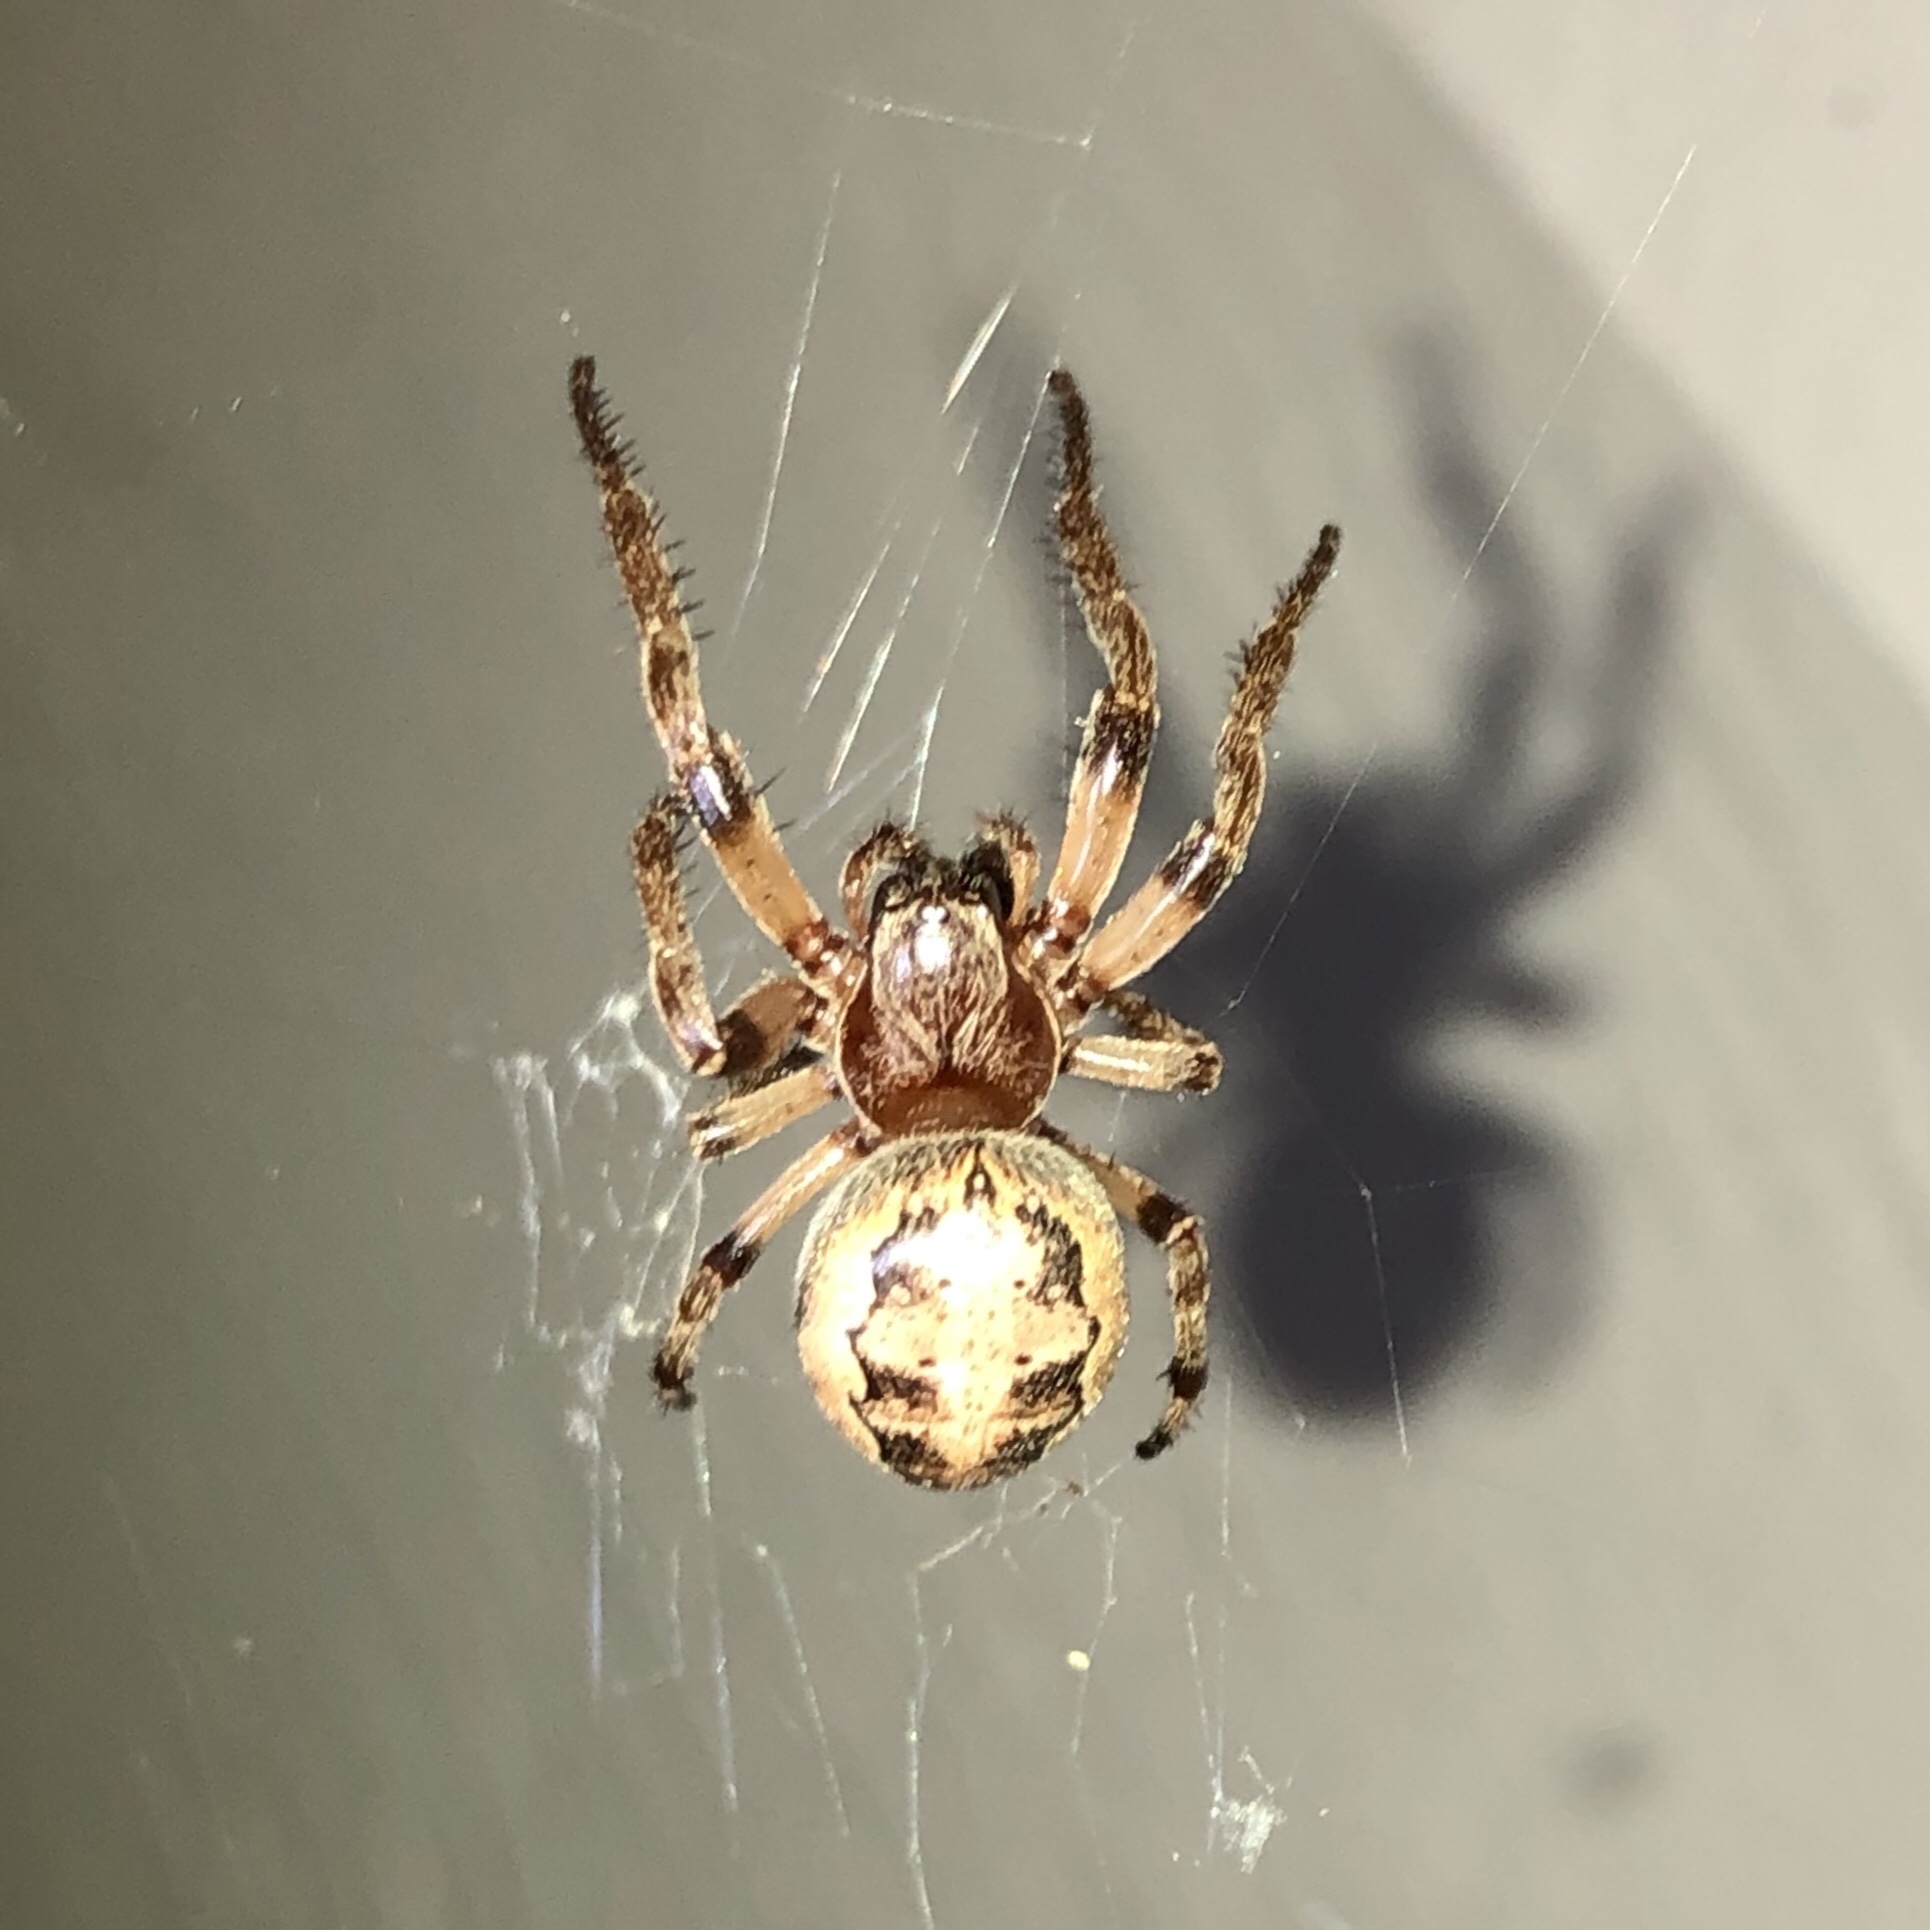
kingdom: Animalia
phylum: Arthropoda
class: Arachnida
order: Araneae
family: Araneidae
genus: Larinioides
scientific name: Larinioides cornutus
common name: Furrow orbweaver
